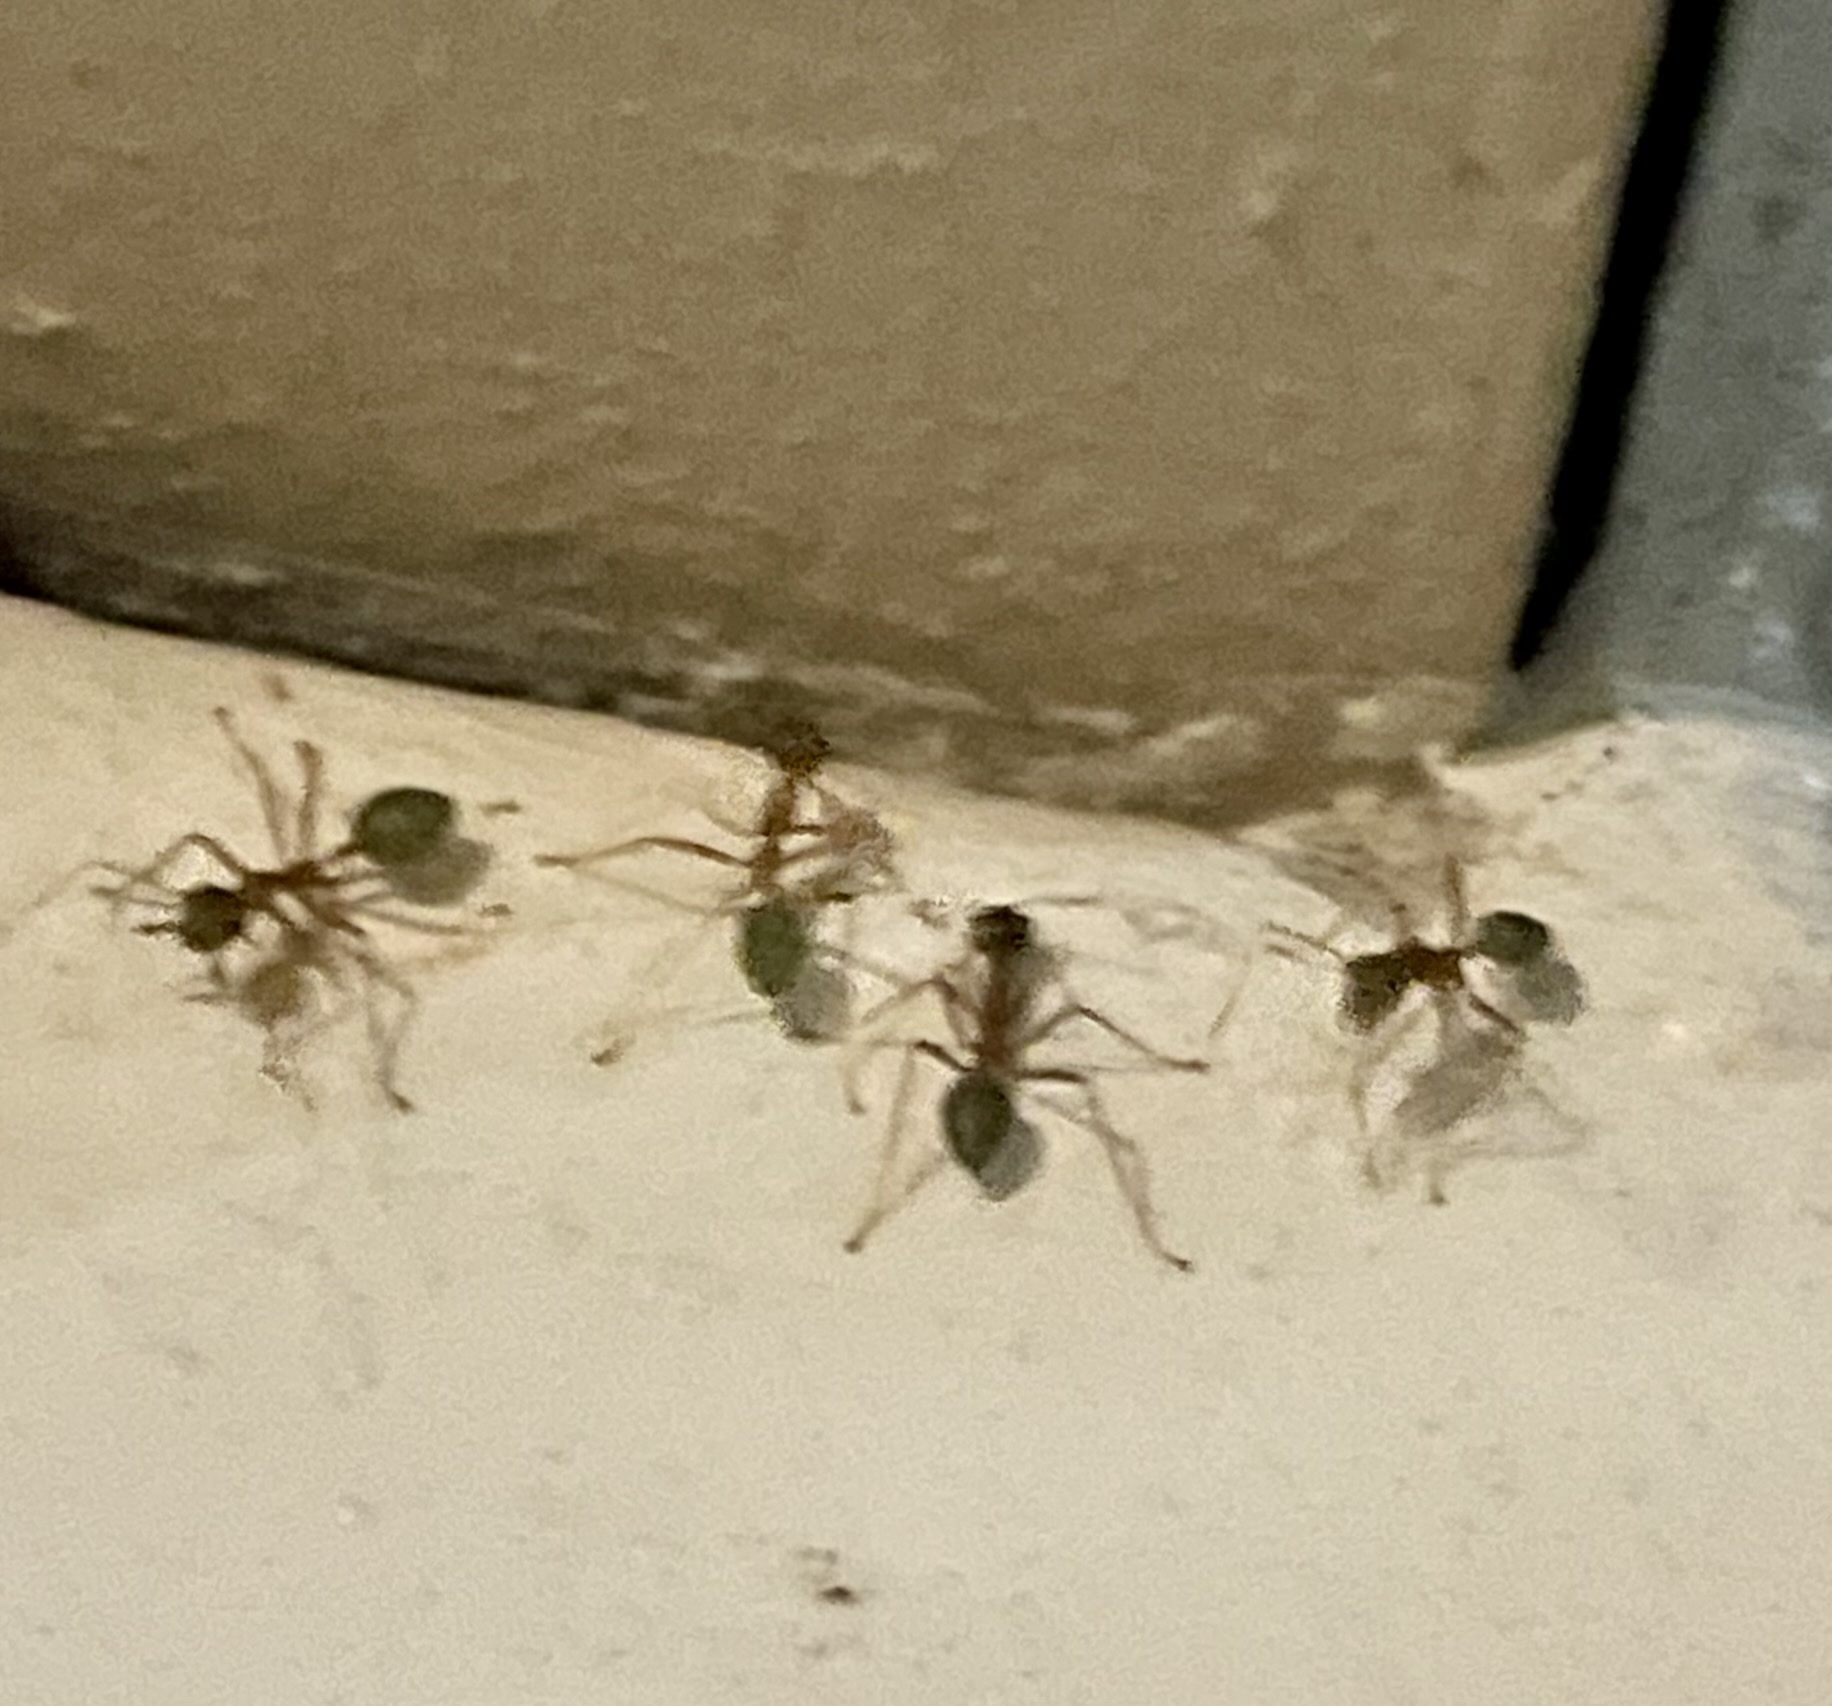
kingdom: Animalia
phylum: Arthropoda
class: Insecta
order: Hymenoptera
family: Formicidae
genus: Oecophylla
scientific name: Oecophylla smaragdina
